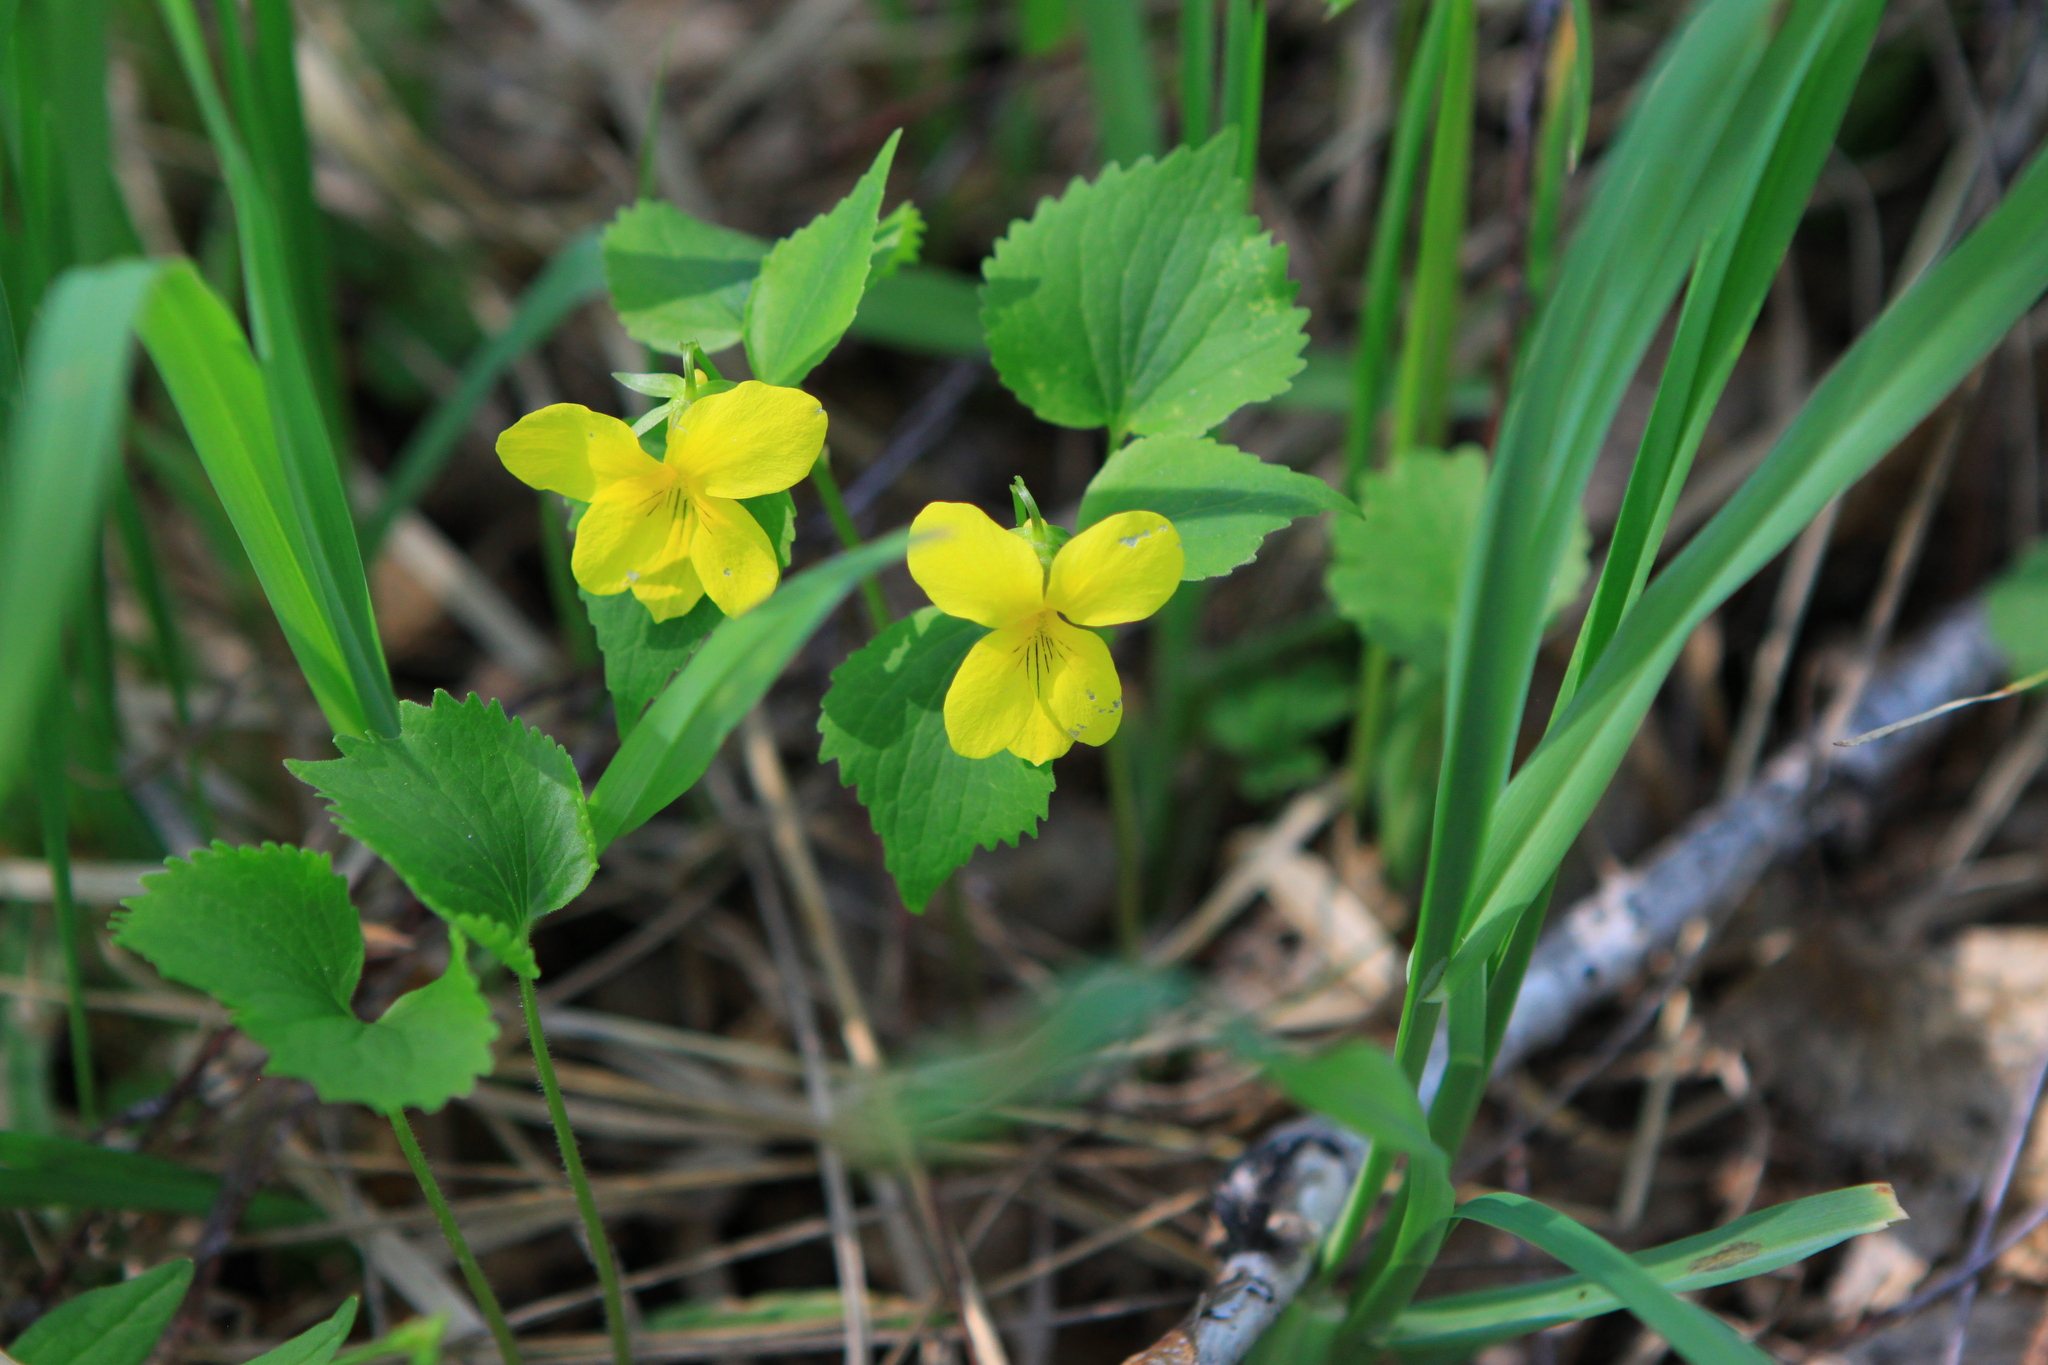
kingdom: Plantae
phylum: Tracheophyta
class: Magnoliopsida
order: Malpighiales
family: Violaceae
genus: Viola
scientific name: Viola uniflora
